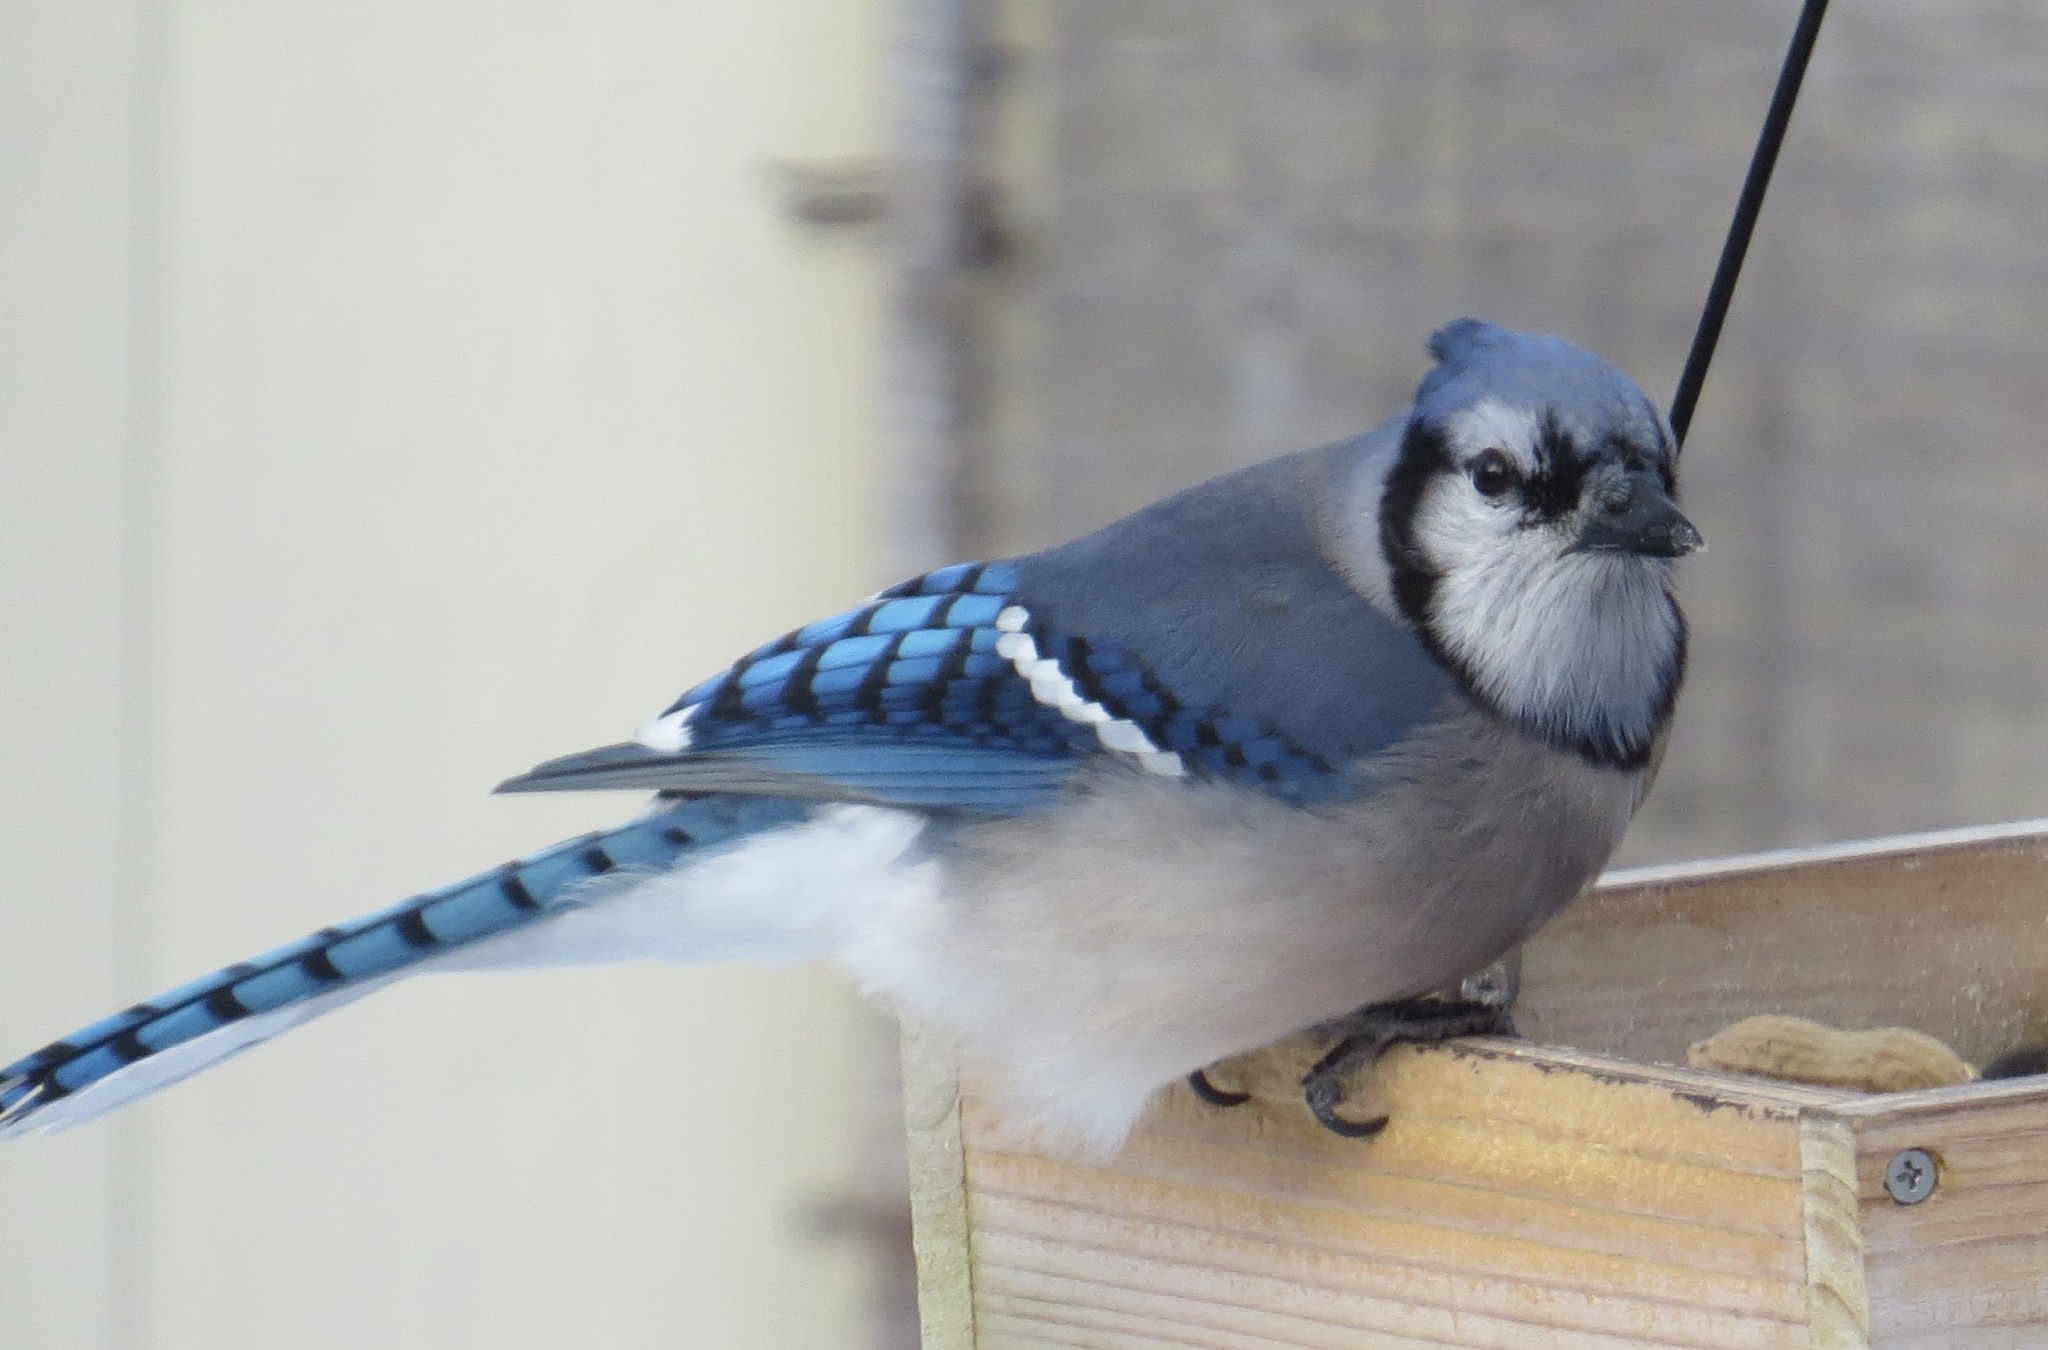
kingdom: Animalia
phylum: Chordata
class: Aves
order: Passeriformes
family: Corvidae
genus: Cyanocitta
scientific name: Cyanocitta cristata
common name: Blue jay
